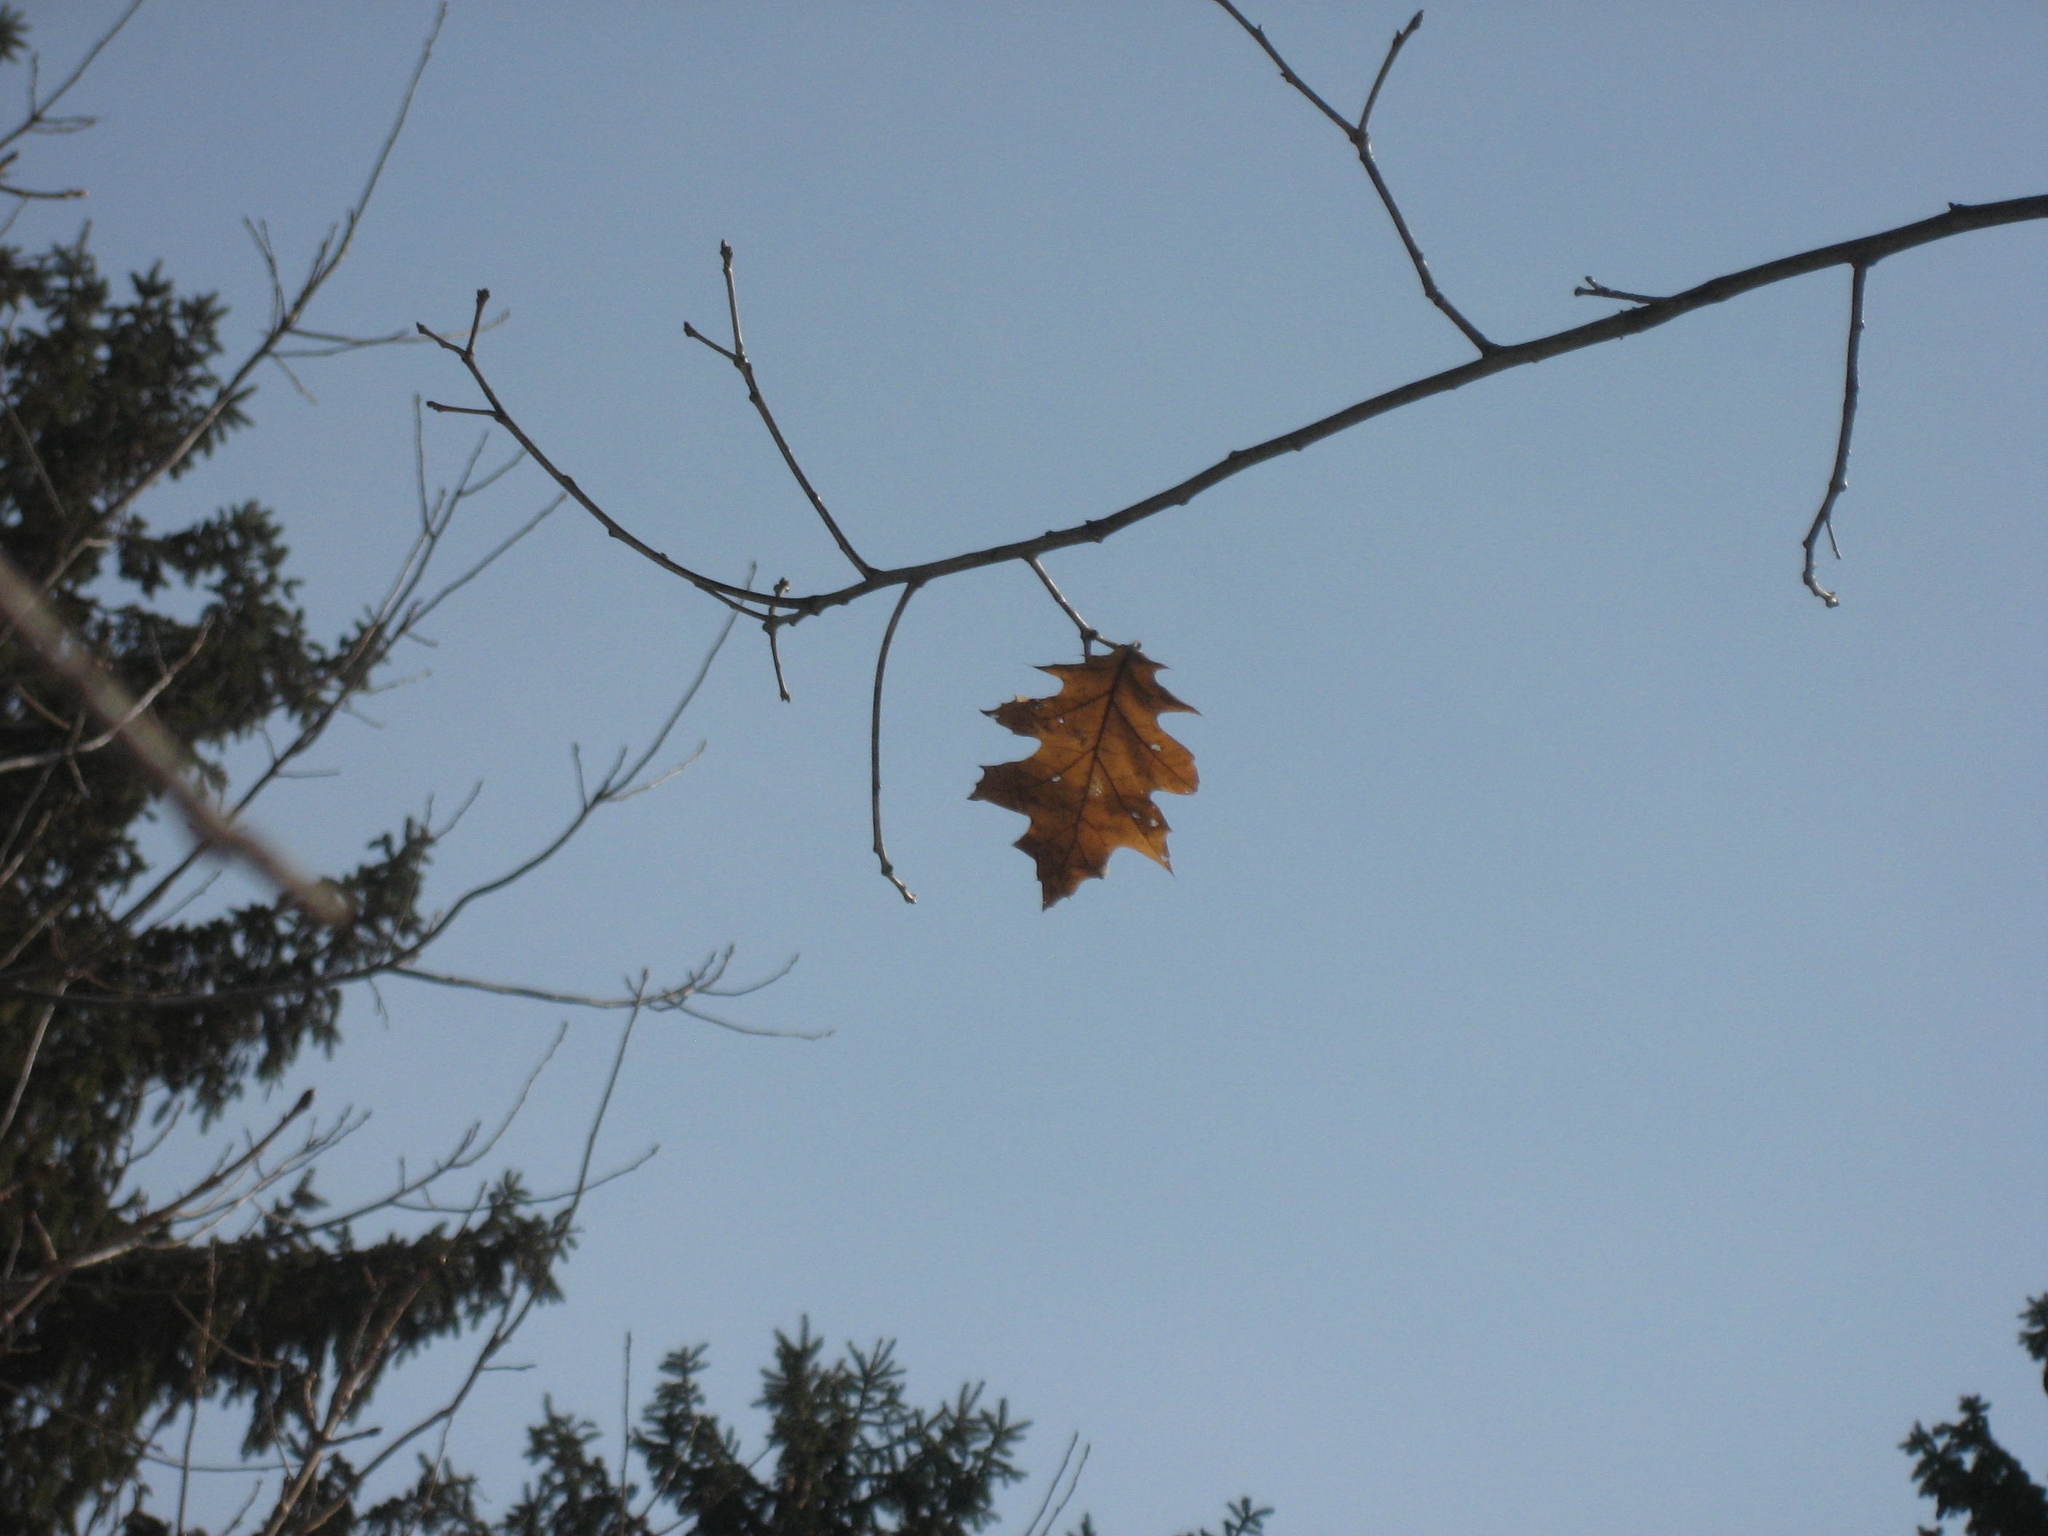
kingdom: Plantae
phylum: Tracheophyta
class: Magnoliopsida
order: Fagales
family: Fagaceae
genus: Quercus
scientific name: Quercus rubra
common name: Red oak
